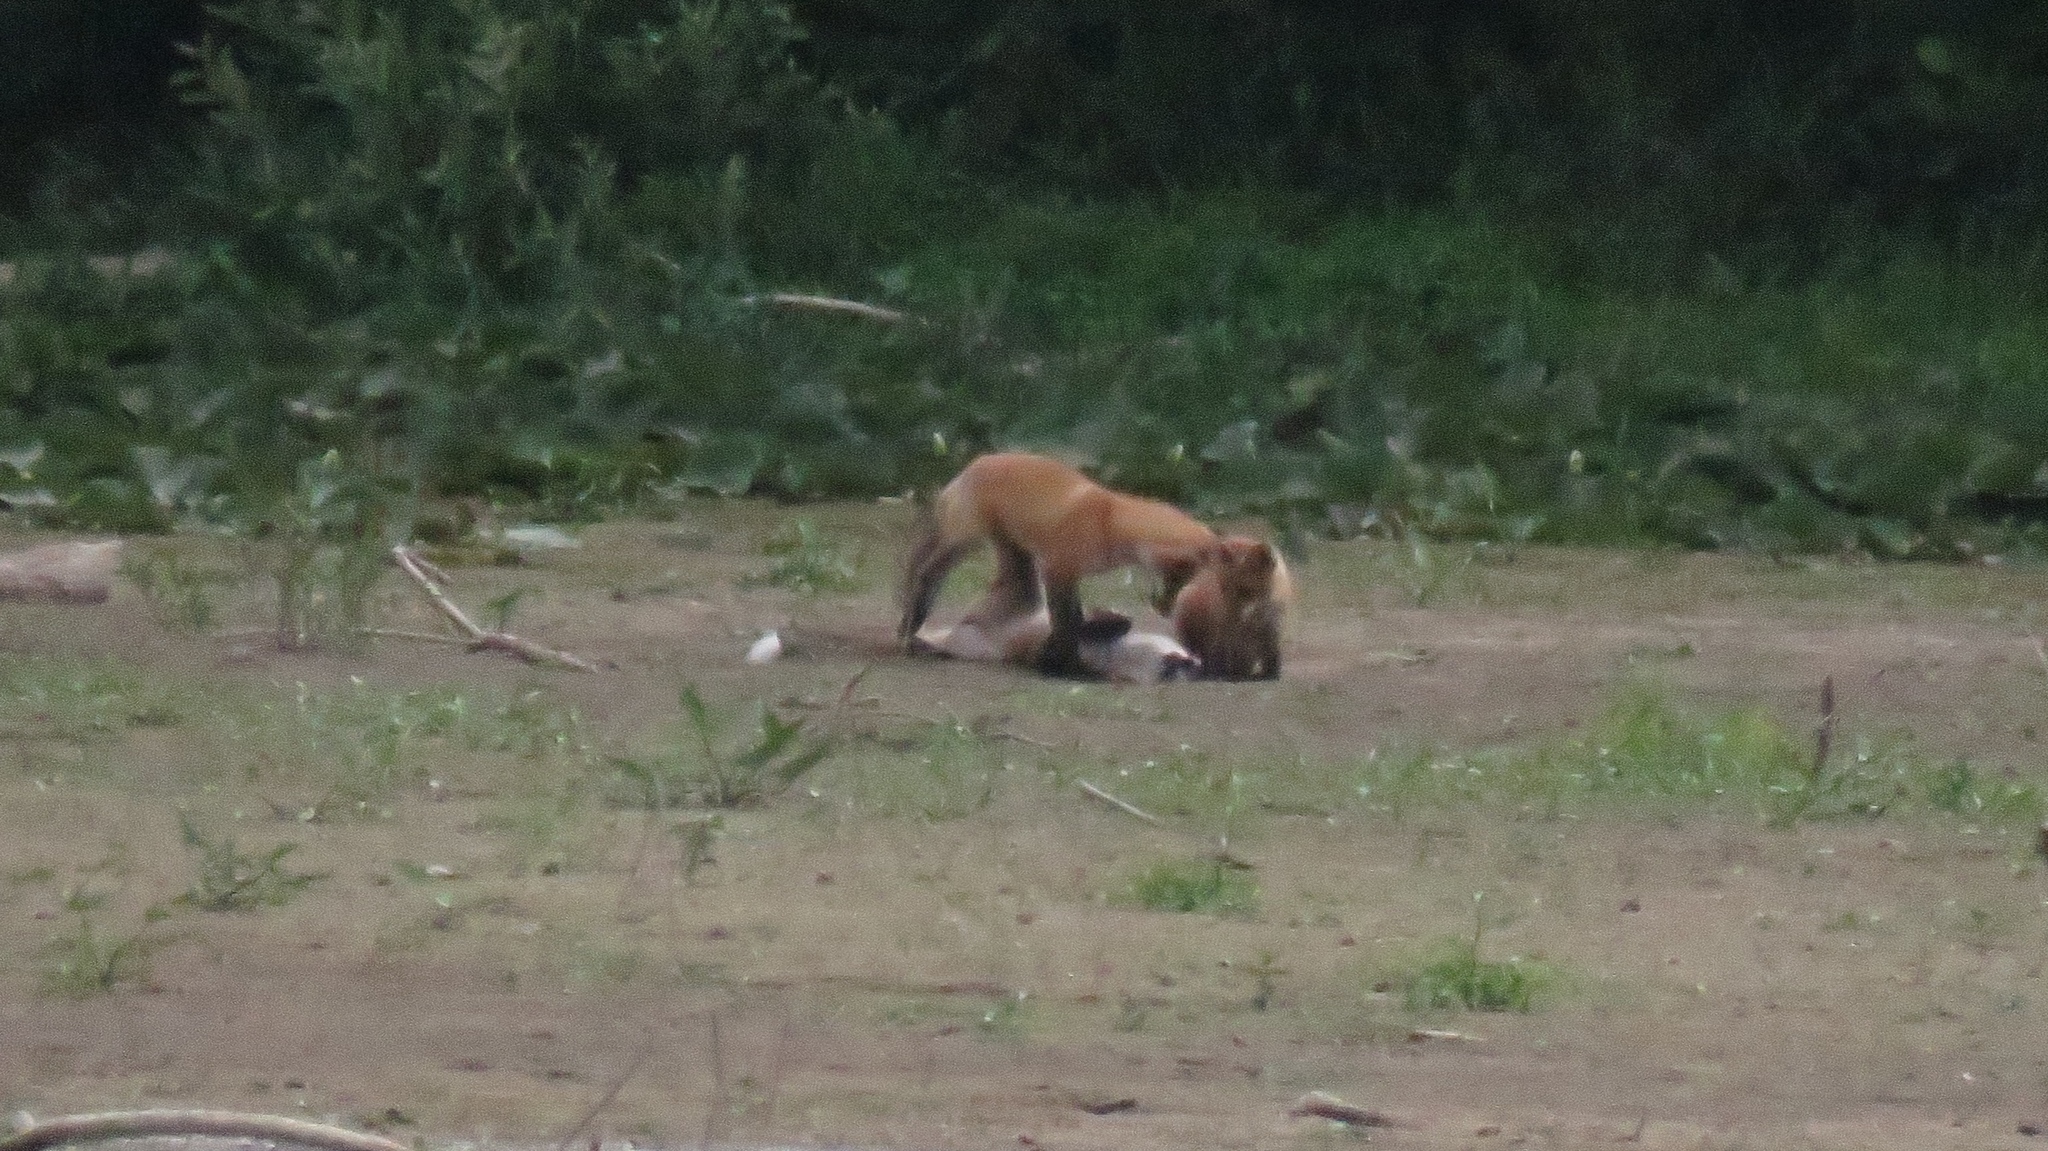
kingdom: Animalia
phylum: Chordata
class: Mammalia
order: Carnivora
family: Canidae
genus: Vulpes
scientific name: Vulpes vulpes
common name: Red fox
